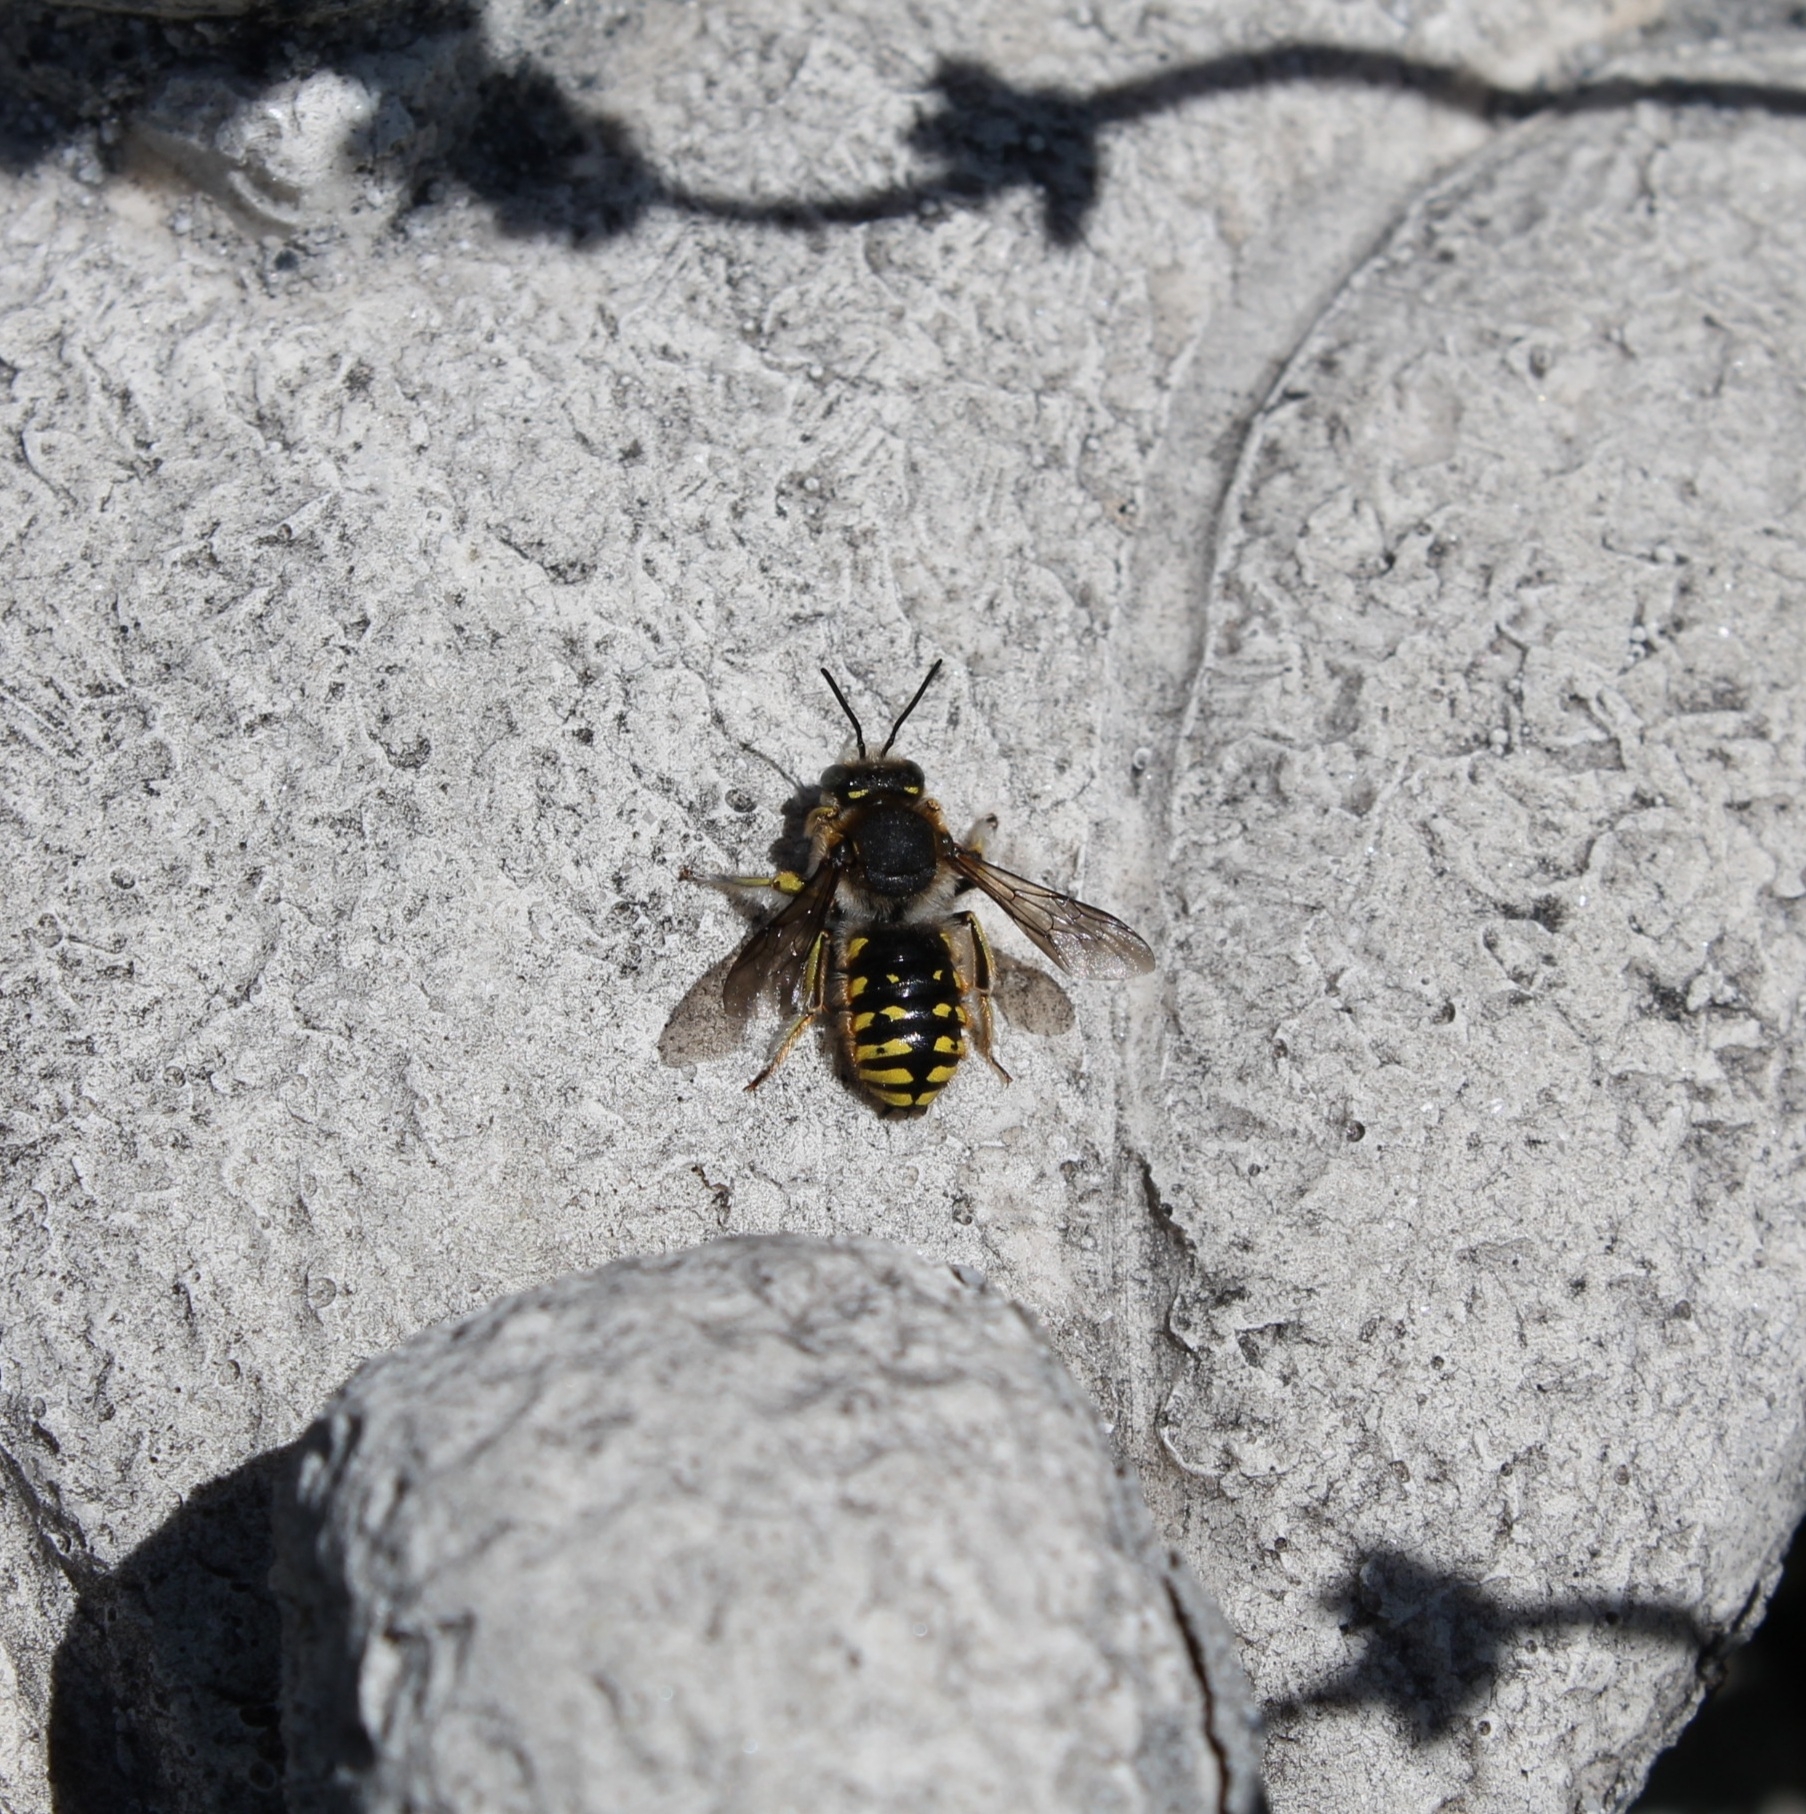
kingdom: Animalia
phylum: Arthropoda
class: Insecta
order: Hymenoptera
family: Megachilidae
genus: Anthidium
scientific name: Anthidium manicatum
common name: Wool carder bee
